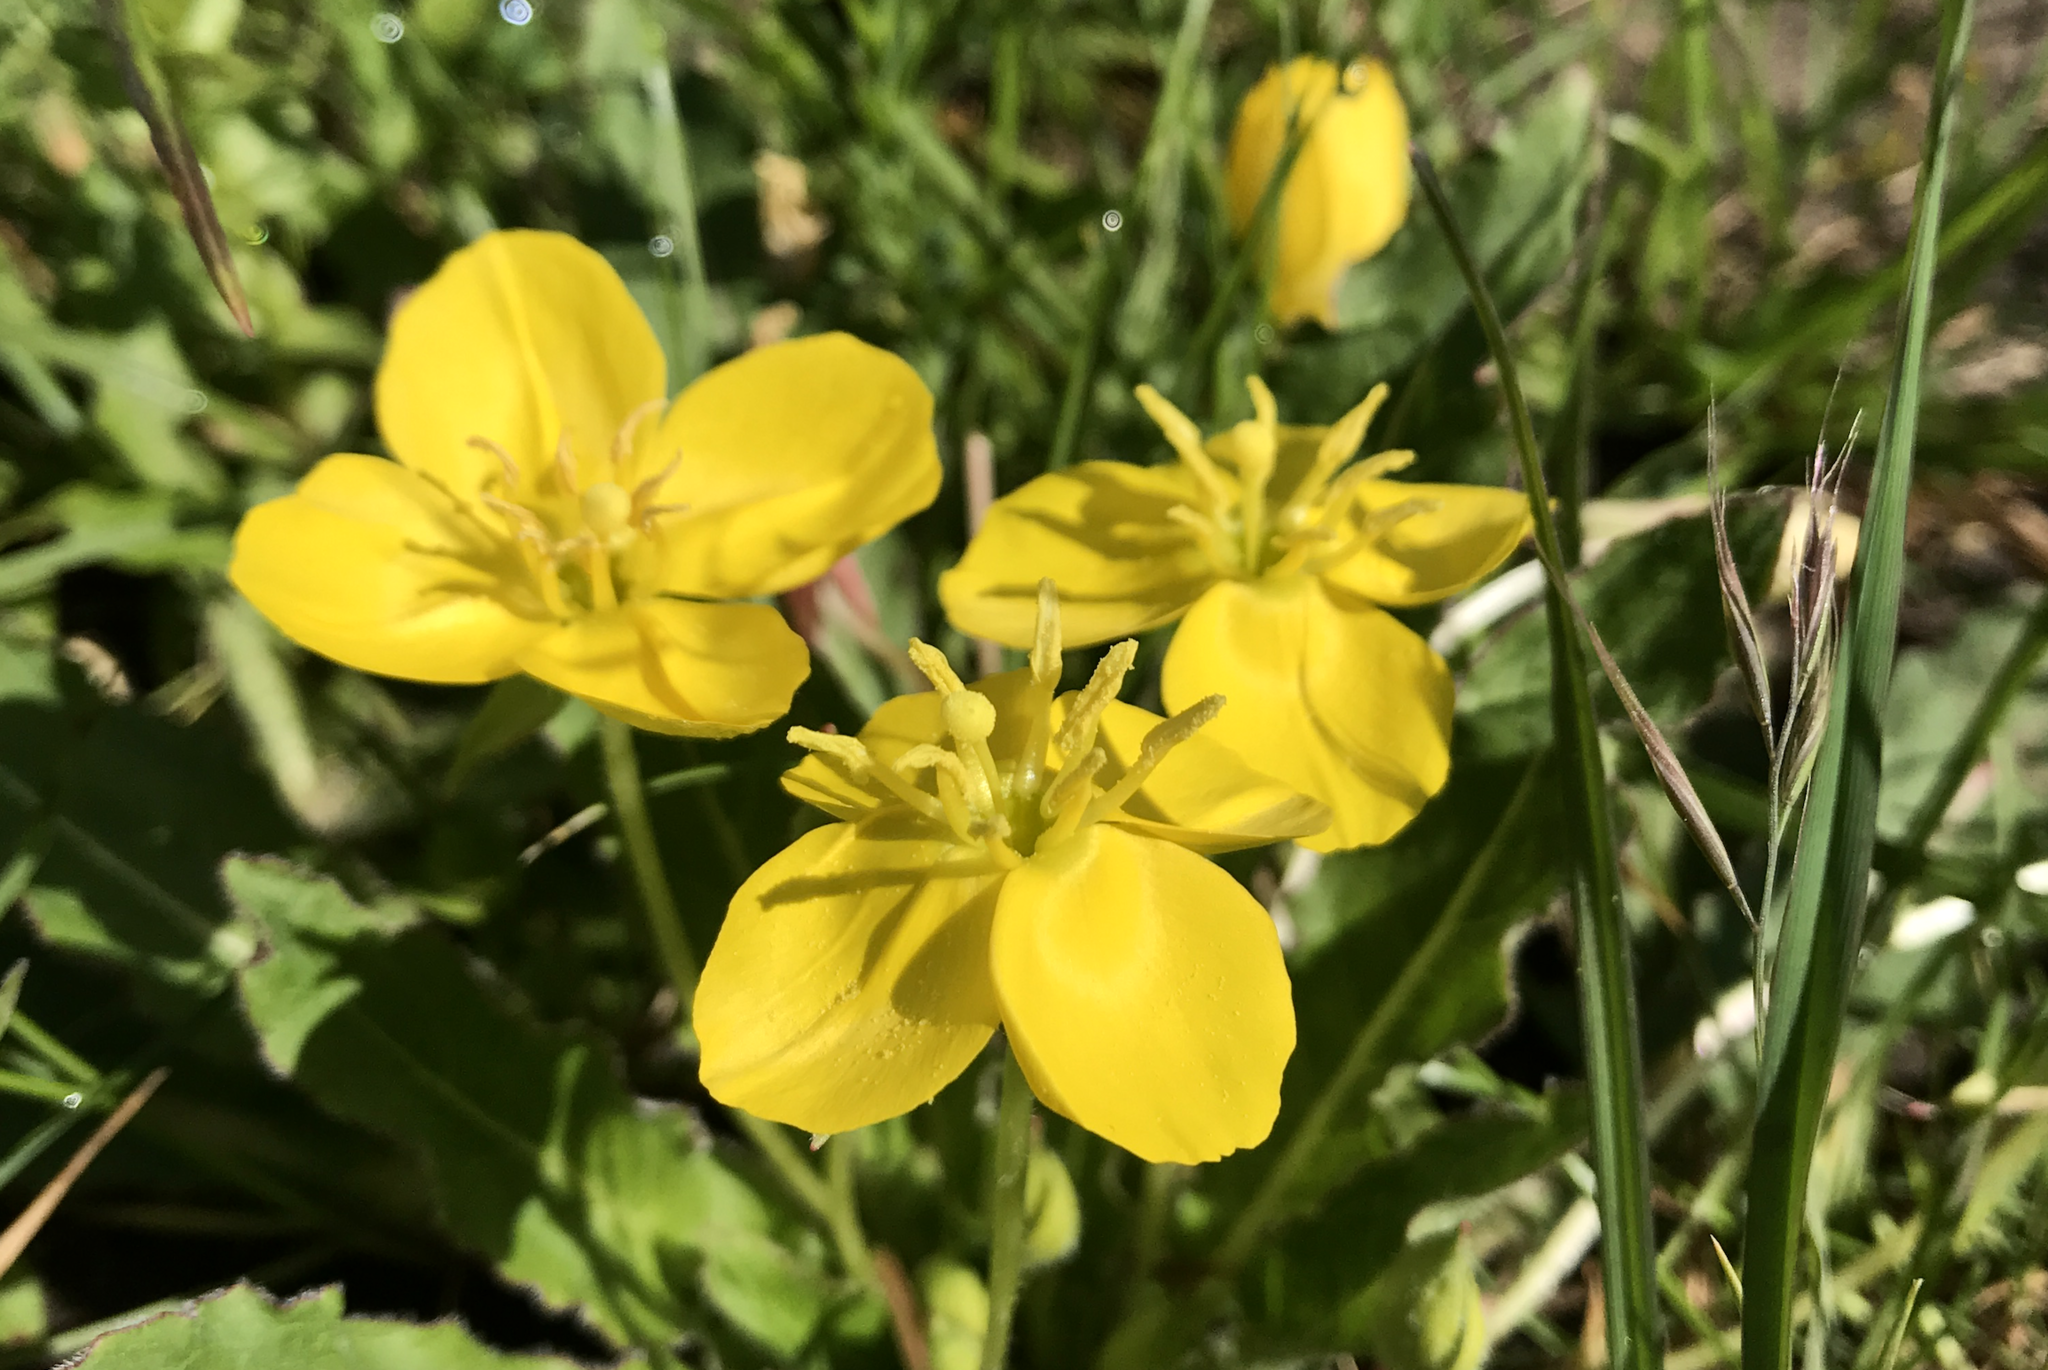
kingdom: Plantae
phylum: Tracheophyta
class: Magnoliopsida
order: Myrtales
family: Onagraceae
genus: Taraxia
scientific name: Taraxia ovata
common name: Goldeneggs
